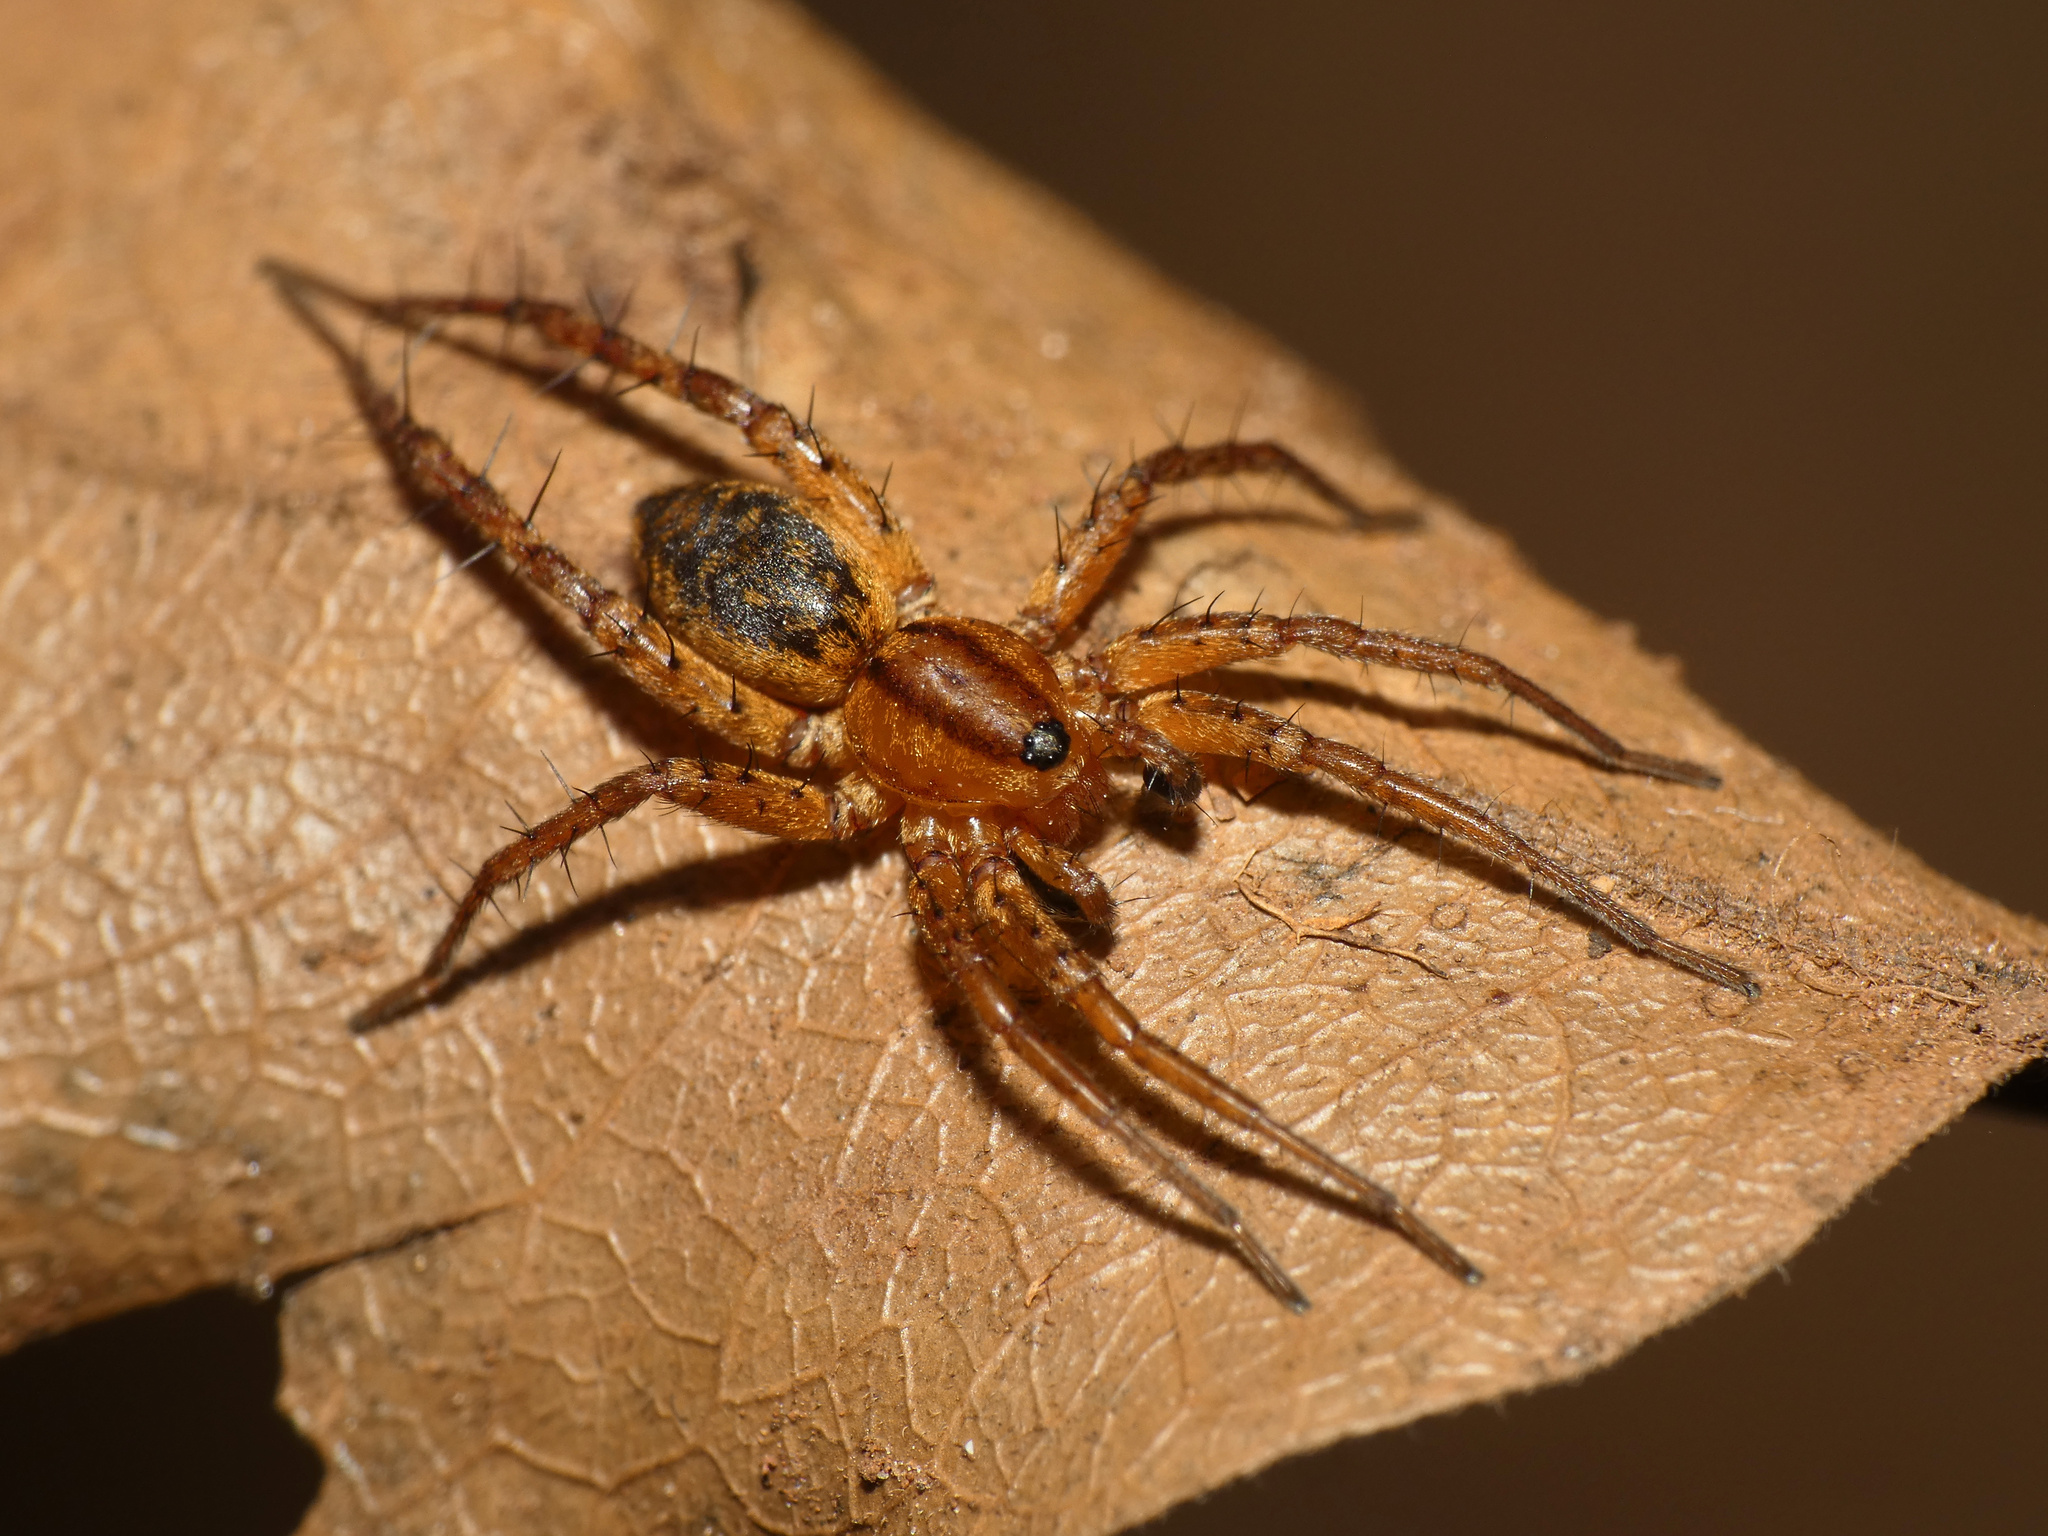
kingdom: Animalia
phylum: Arthropoda
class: Arachnida
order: Araneae
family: Corinnidae
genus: Copa
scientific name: Copa flavoplumosa
